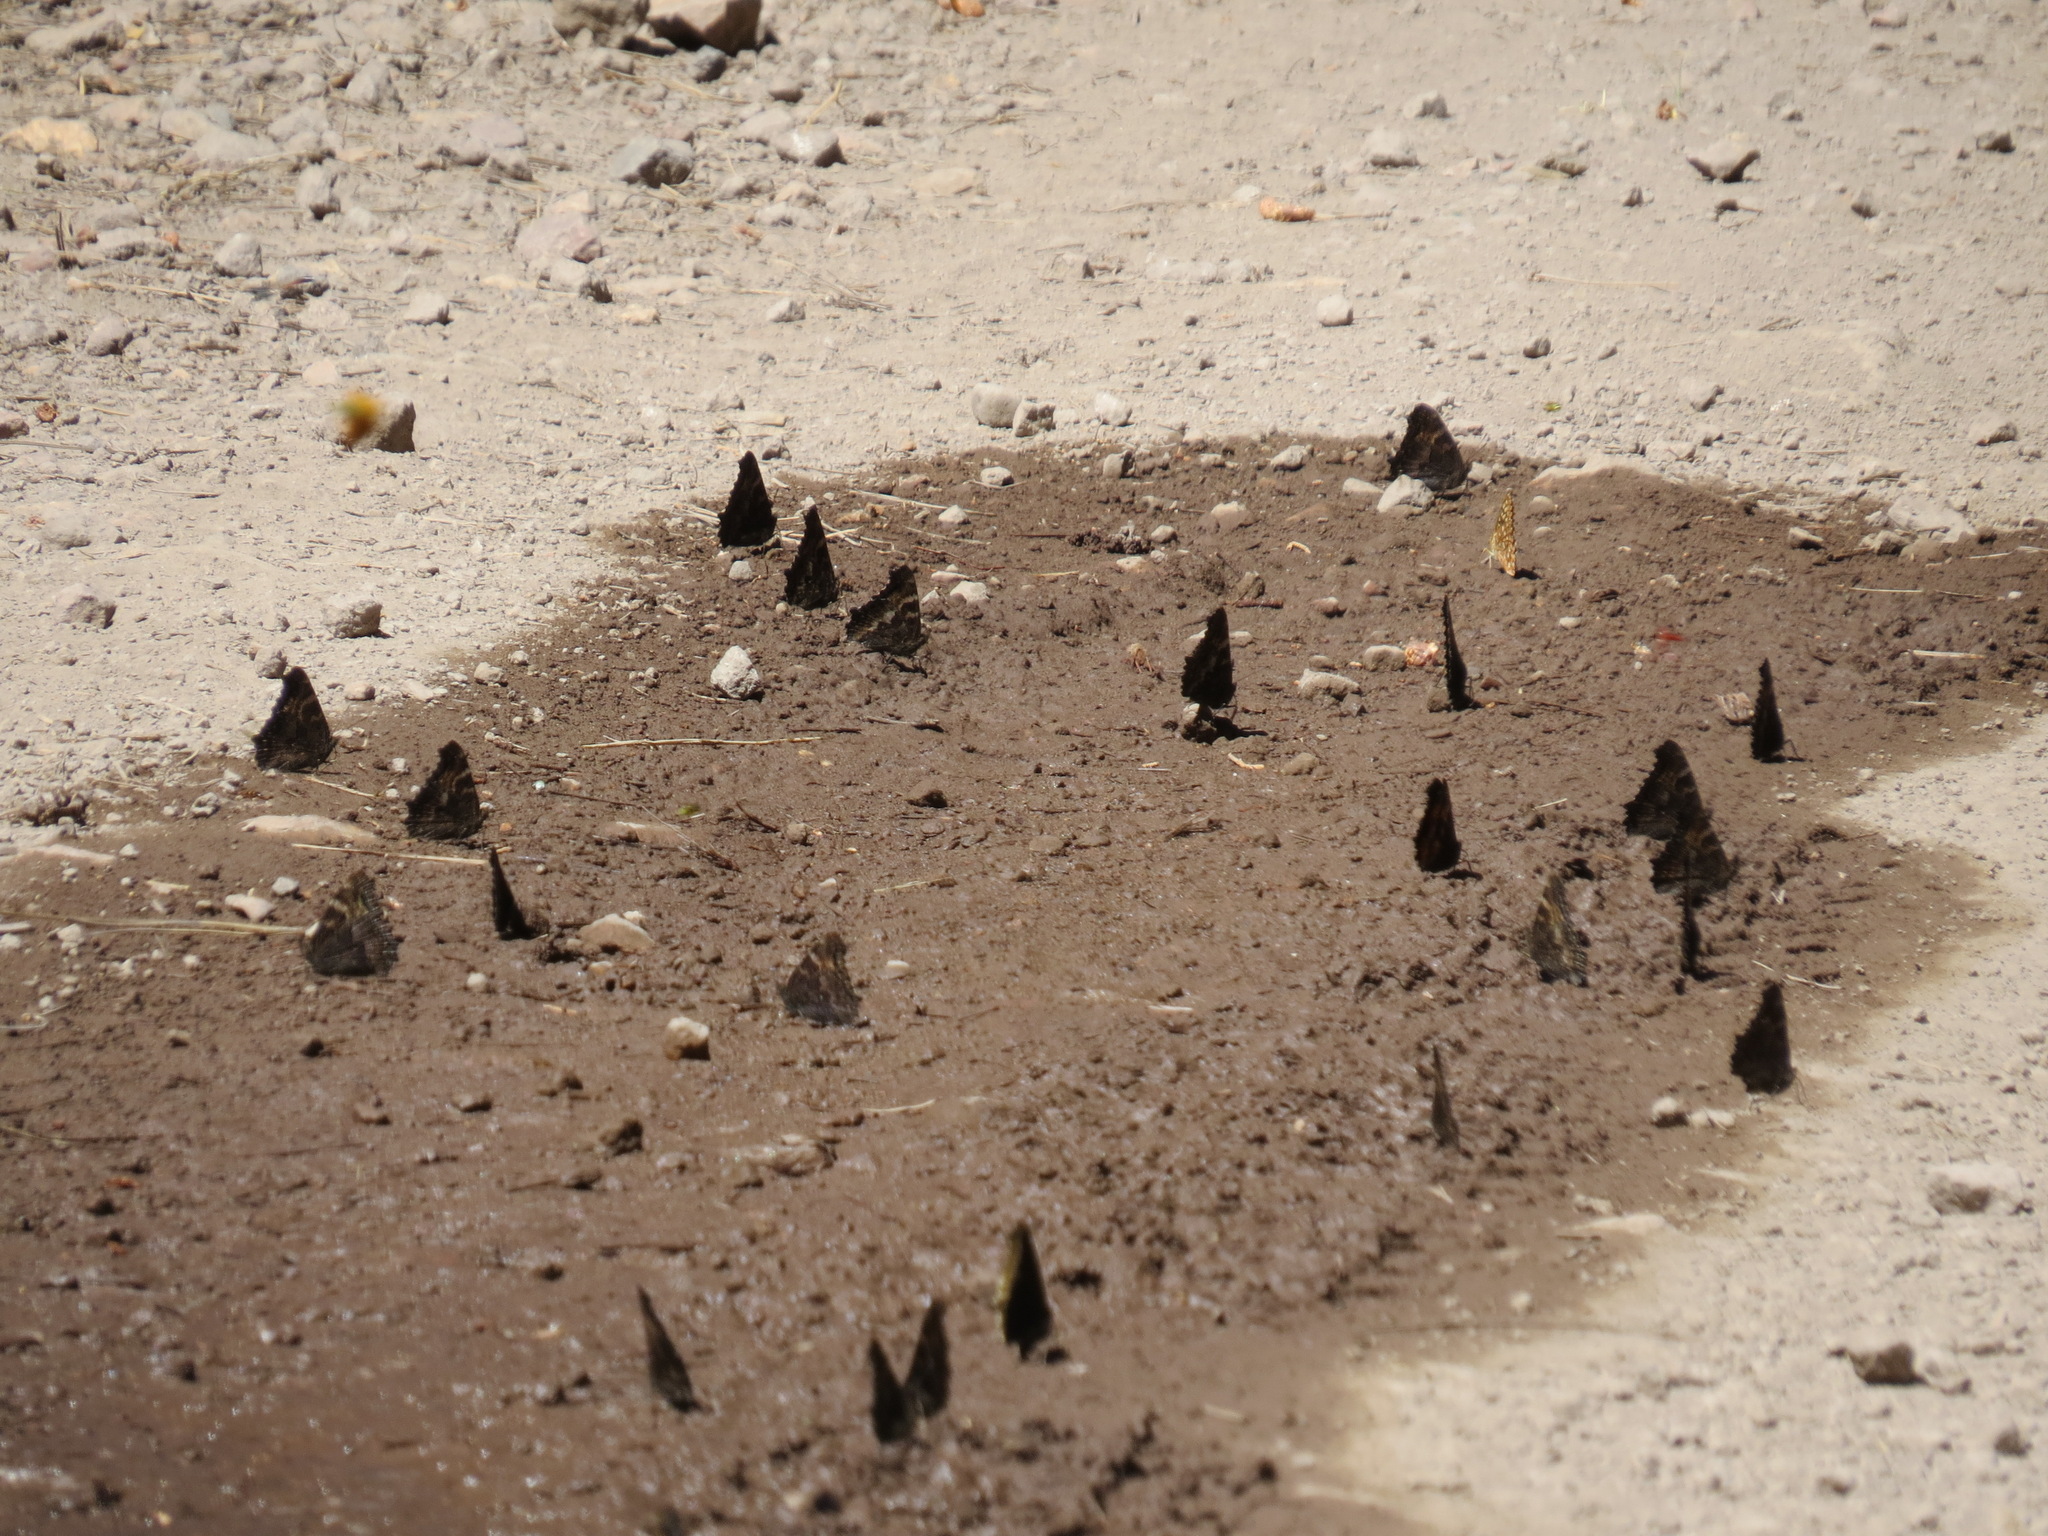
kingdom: Animalia
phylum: Arthropoda
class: Insecta
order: Lepidoptera
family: Nymphalidae
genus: Nymphalis
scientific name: Nymphalis californica
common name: California tortoiseshell
